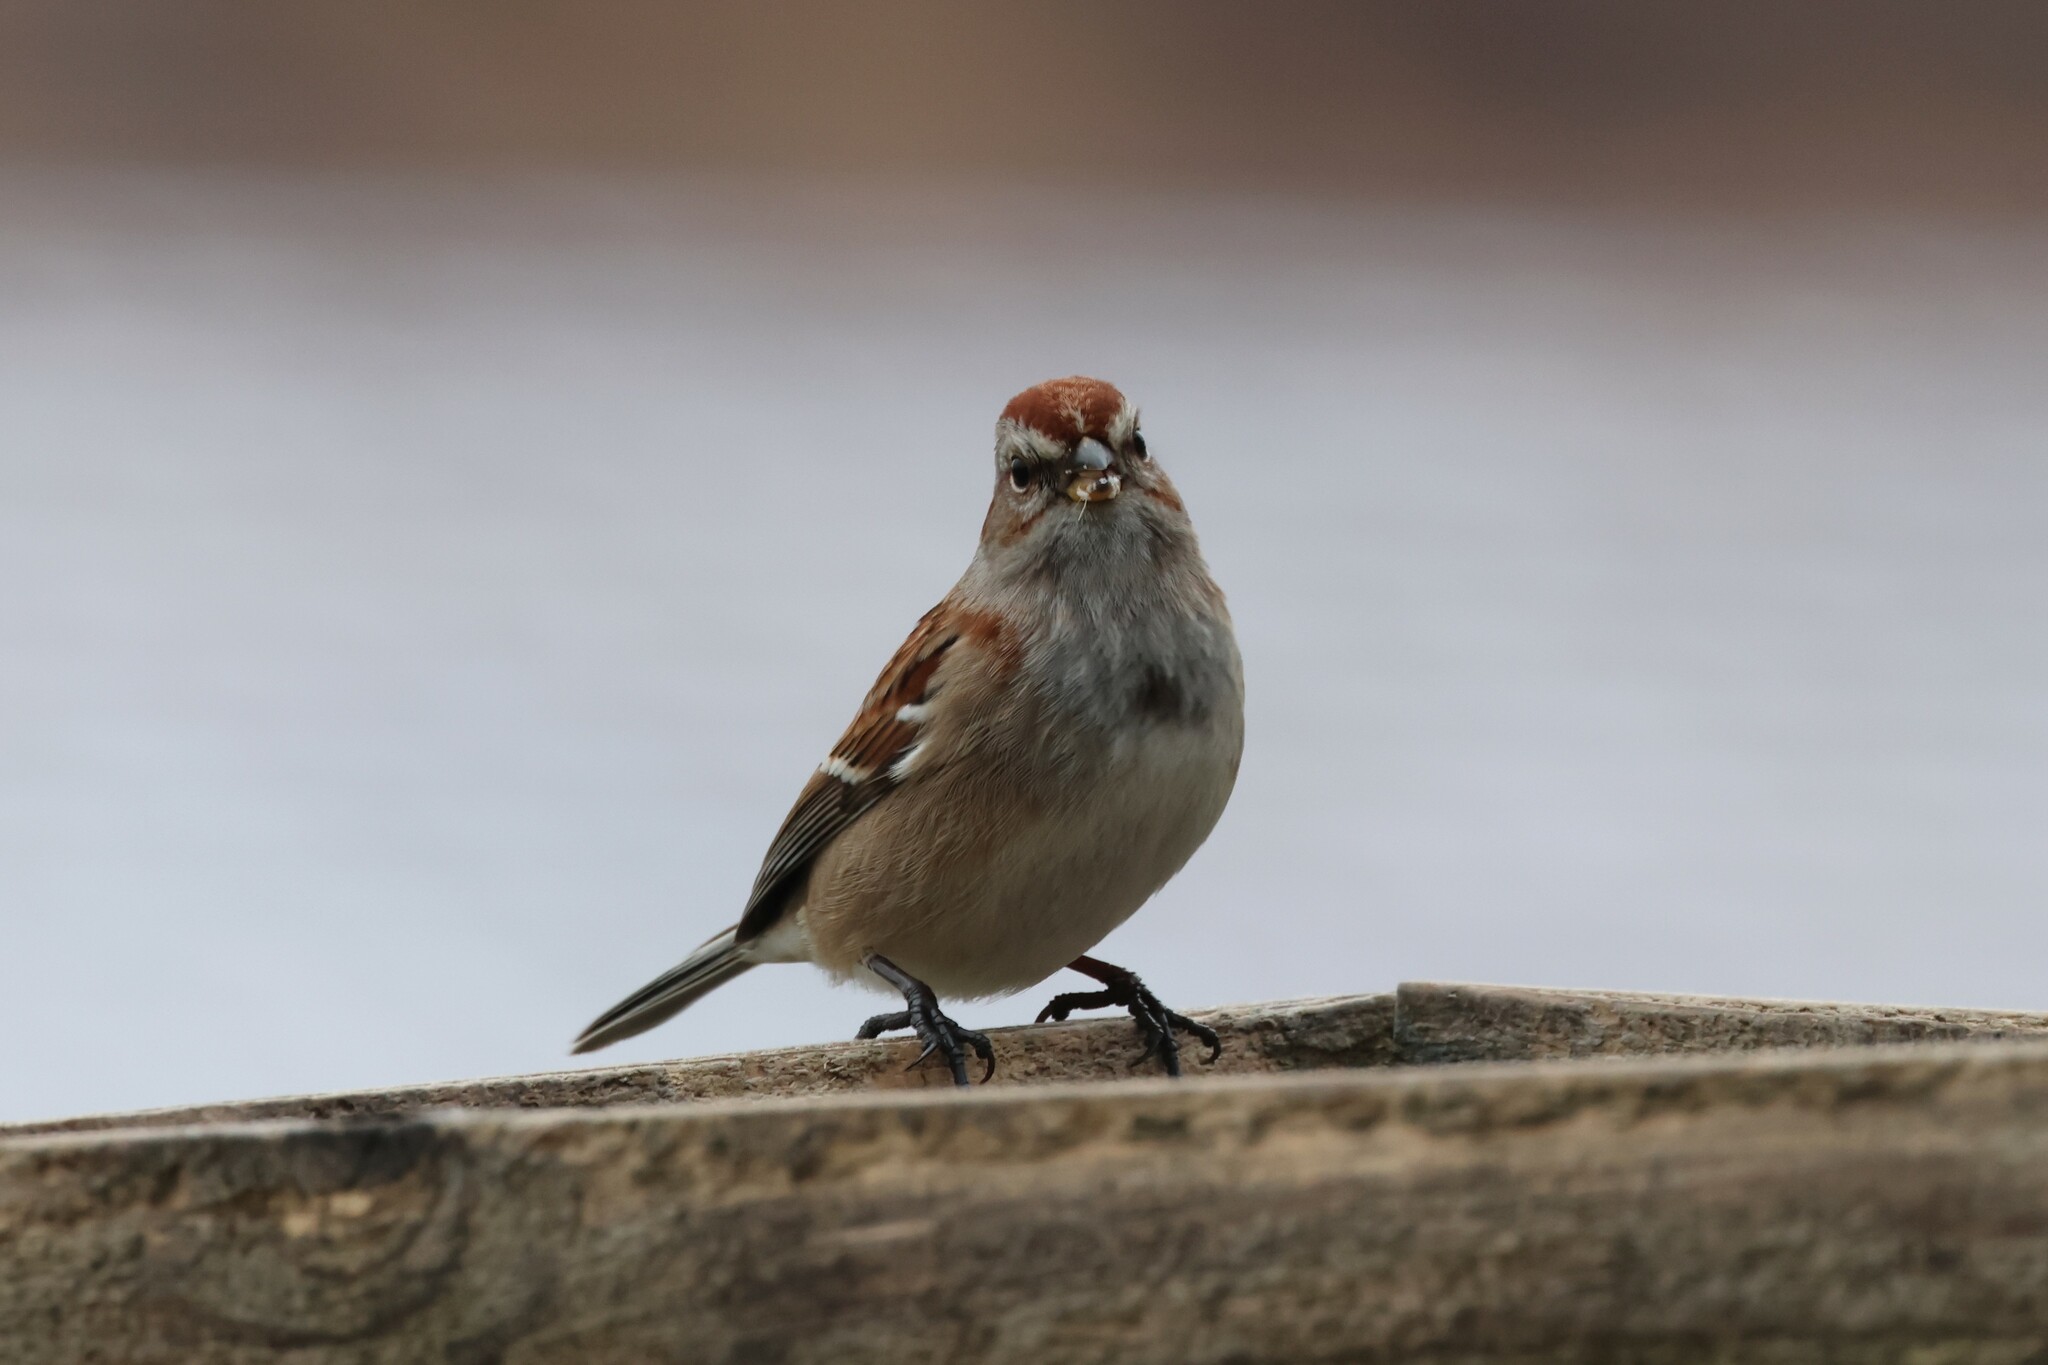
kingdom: Animalia
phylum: Chordata
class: Aves
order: Passeriformes
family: Passerellidae
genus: Spizelloides
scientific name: Spizelloides arborea
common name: American tree sparrow
